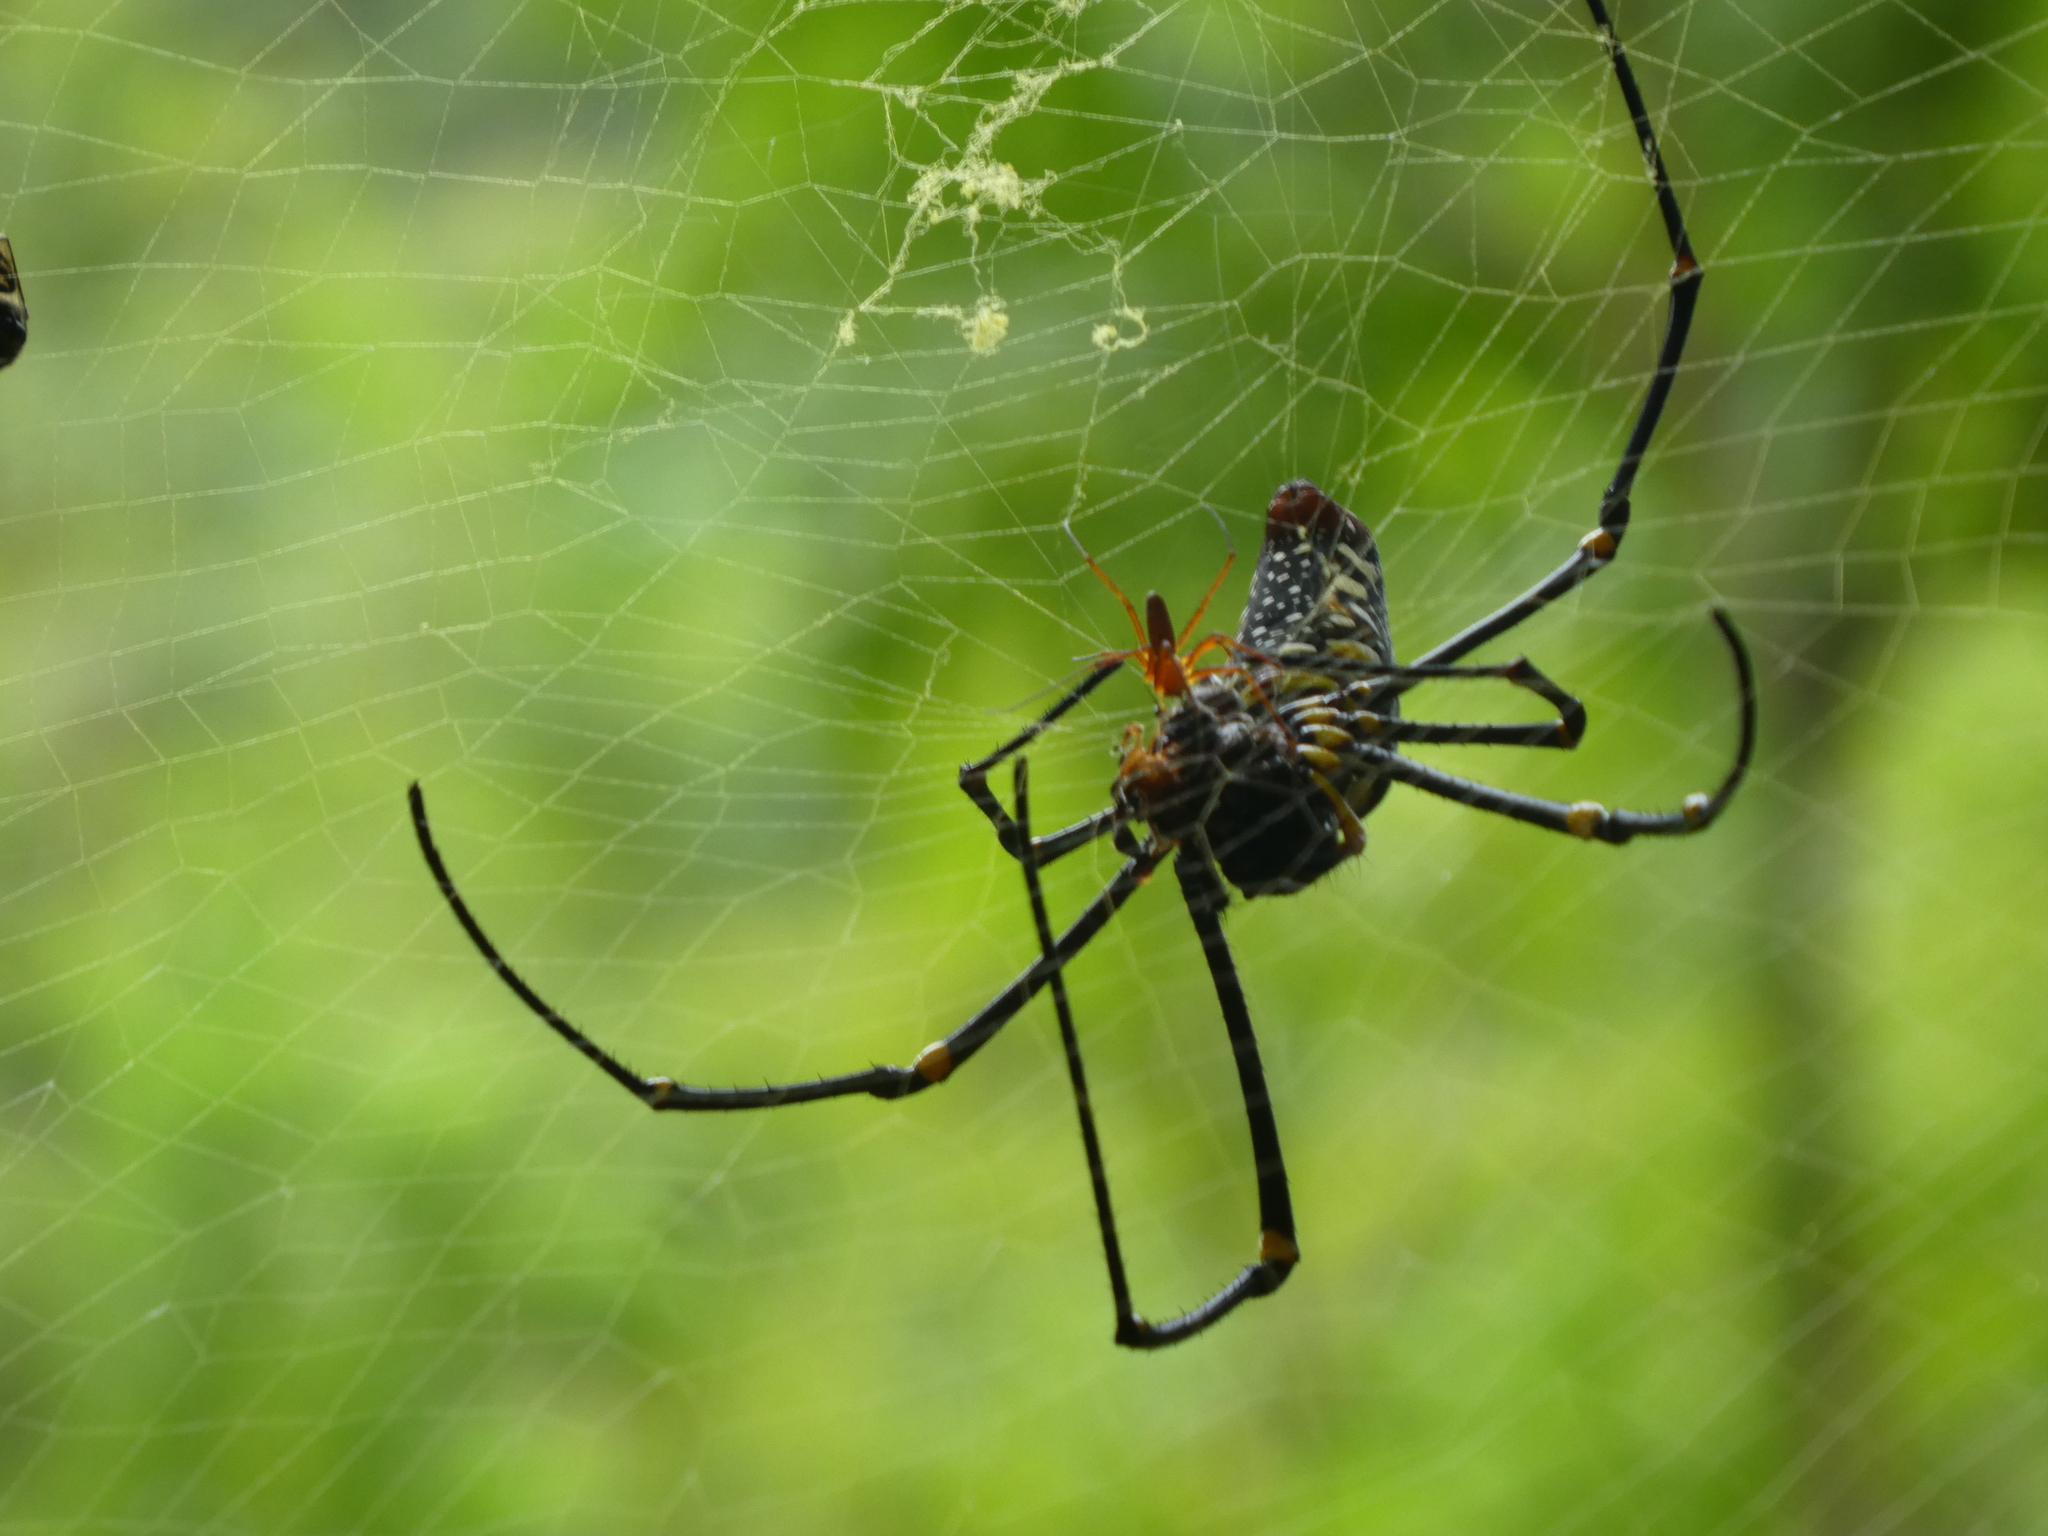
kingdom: Animalia
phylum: Arthropoda
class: Arachnida
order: Araneae
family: Araneidae
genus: Nephila
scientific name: Nephila pilipes
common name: Giant golden orb weaver
